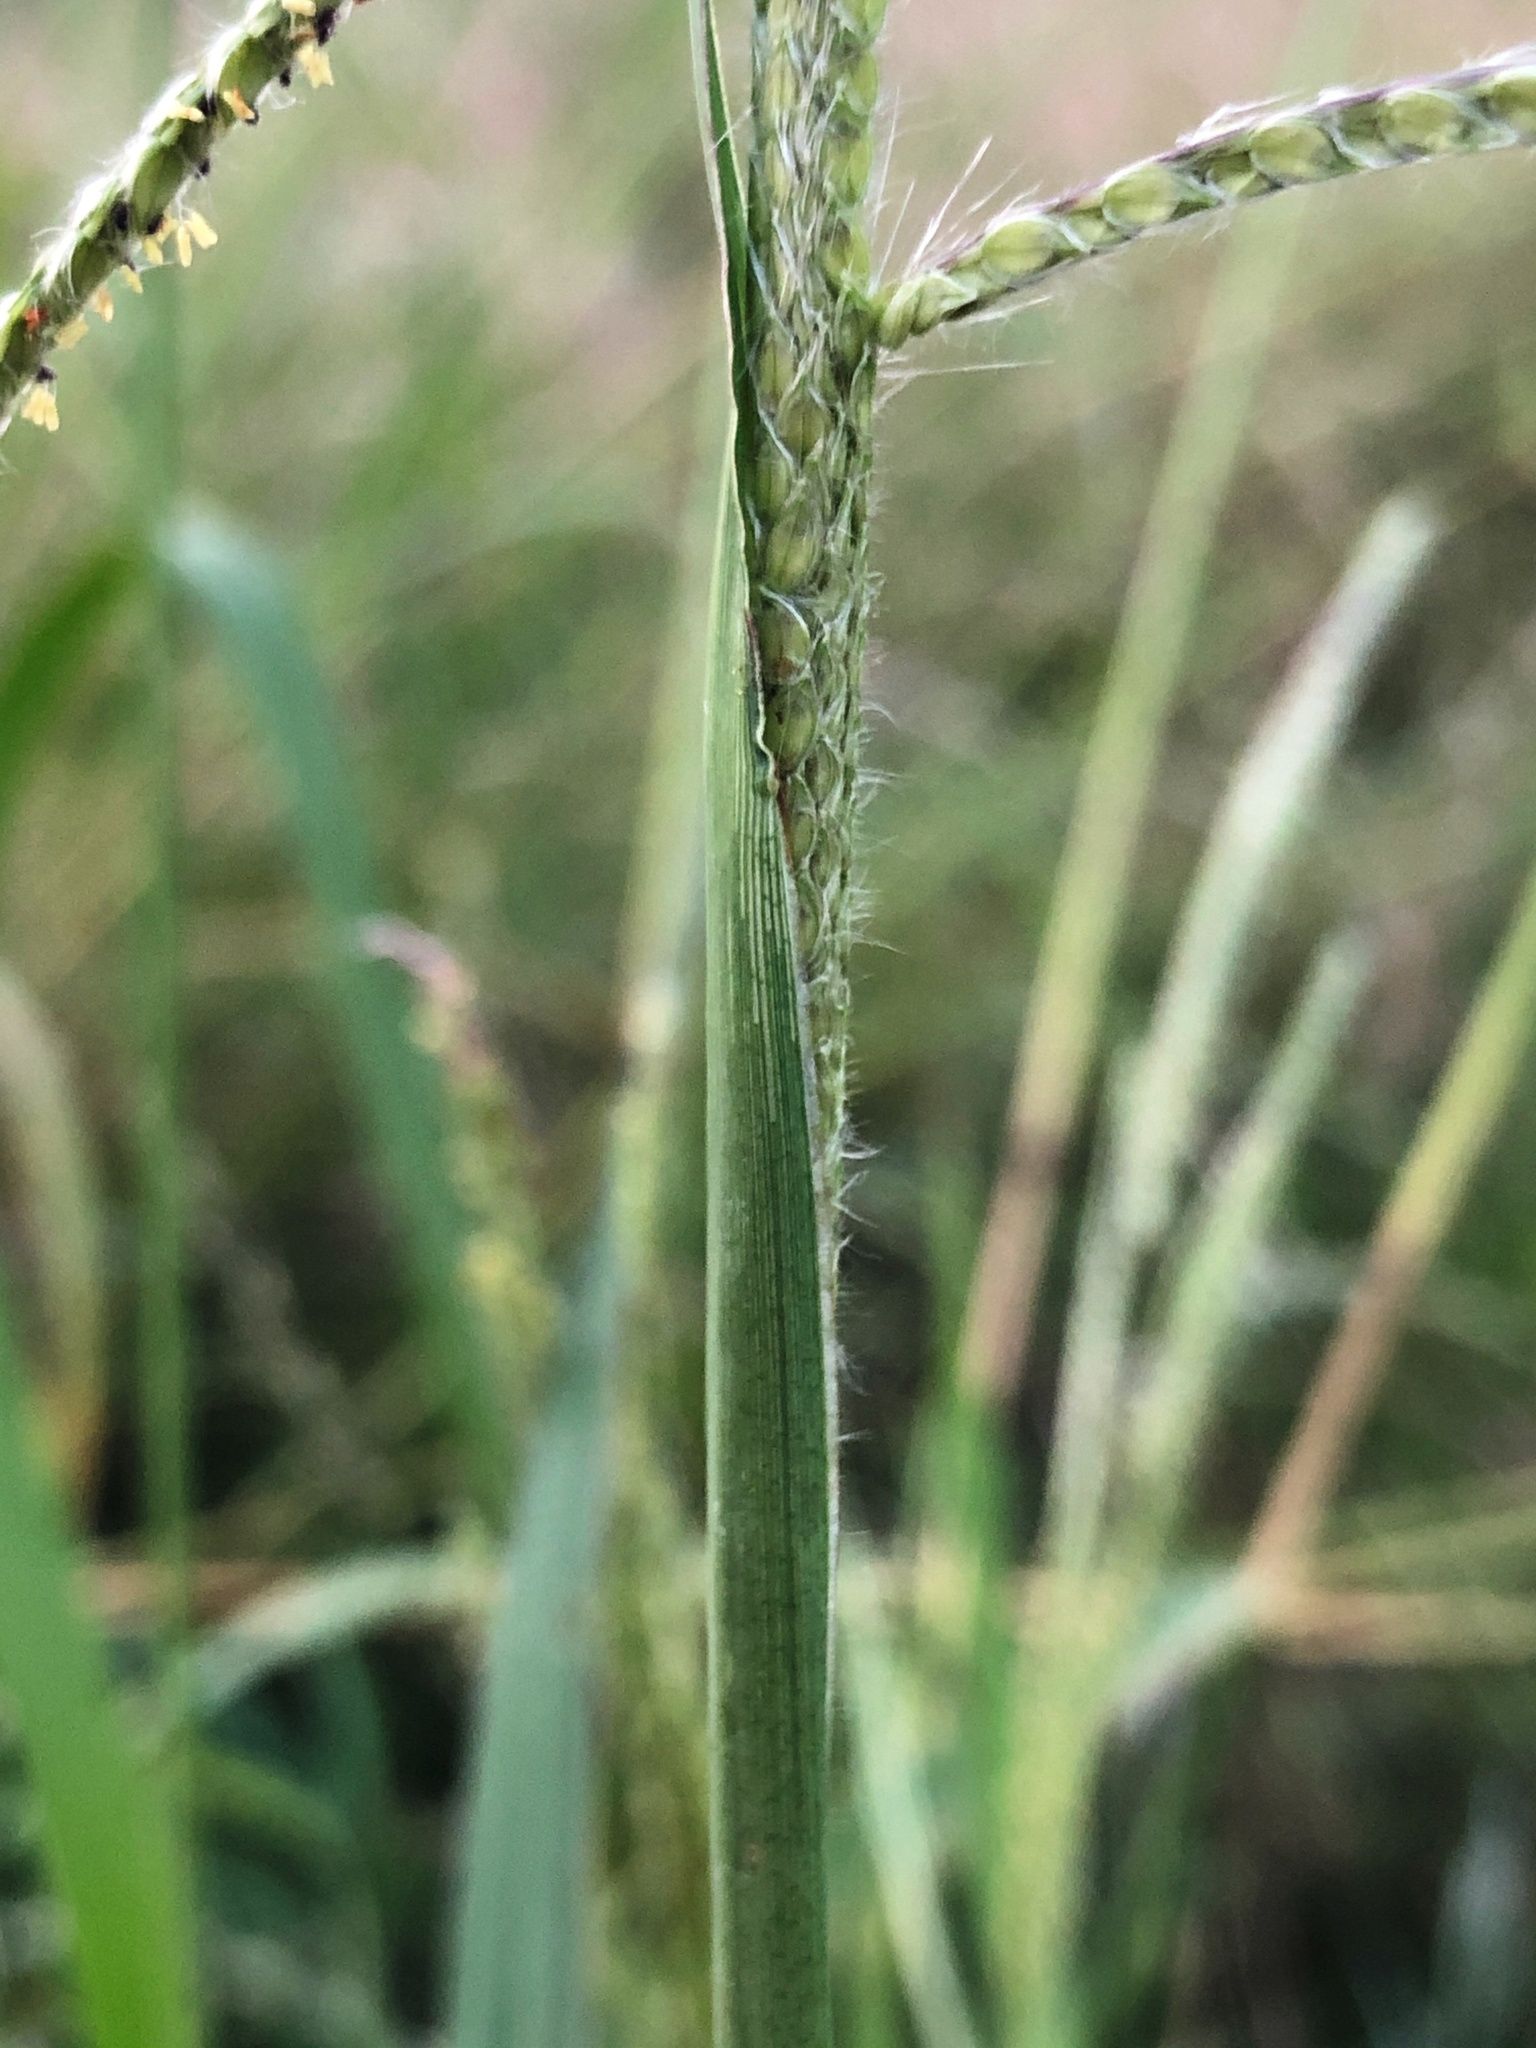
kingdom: Plantae
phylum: Tracheophyta
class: Liliopsida
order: Poales
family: Poaceae
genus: Paspalum
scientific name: Paspalum urvillei
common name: Vasey's grass
